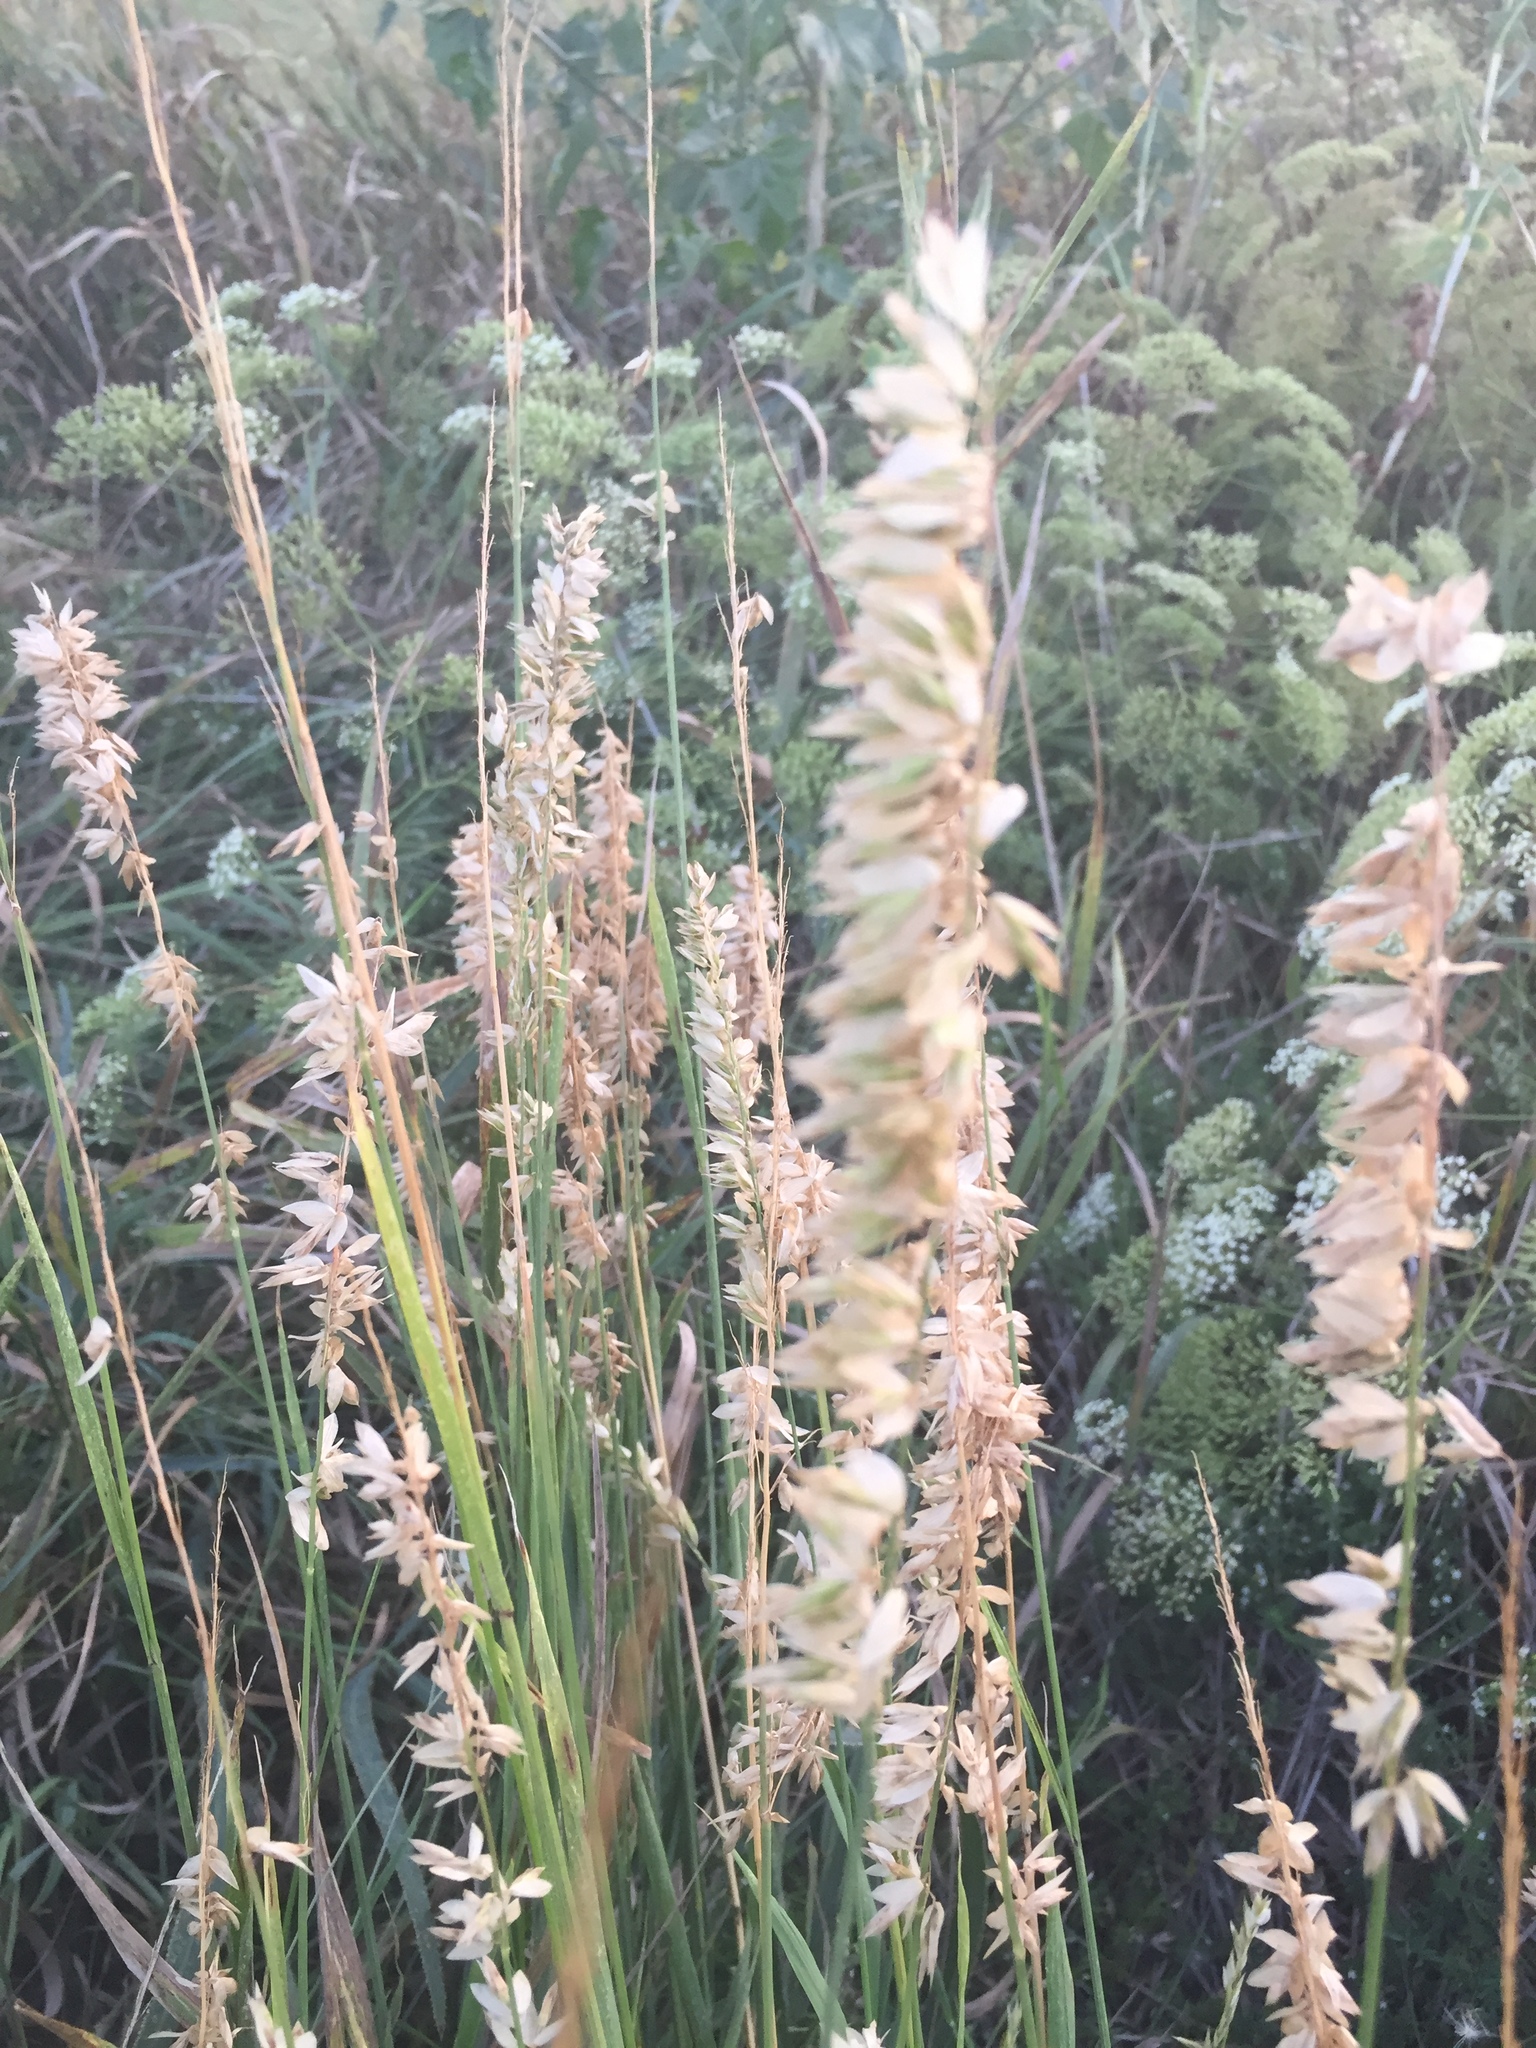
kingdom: Plantae
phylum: Tracheophyta
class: Liliopsida
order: Poales
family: Poaceae
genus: Melica
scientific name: Melica altissima
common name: Siberian melicgrass
